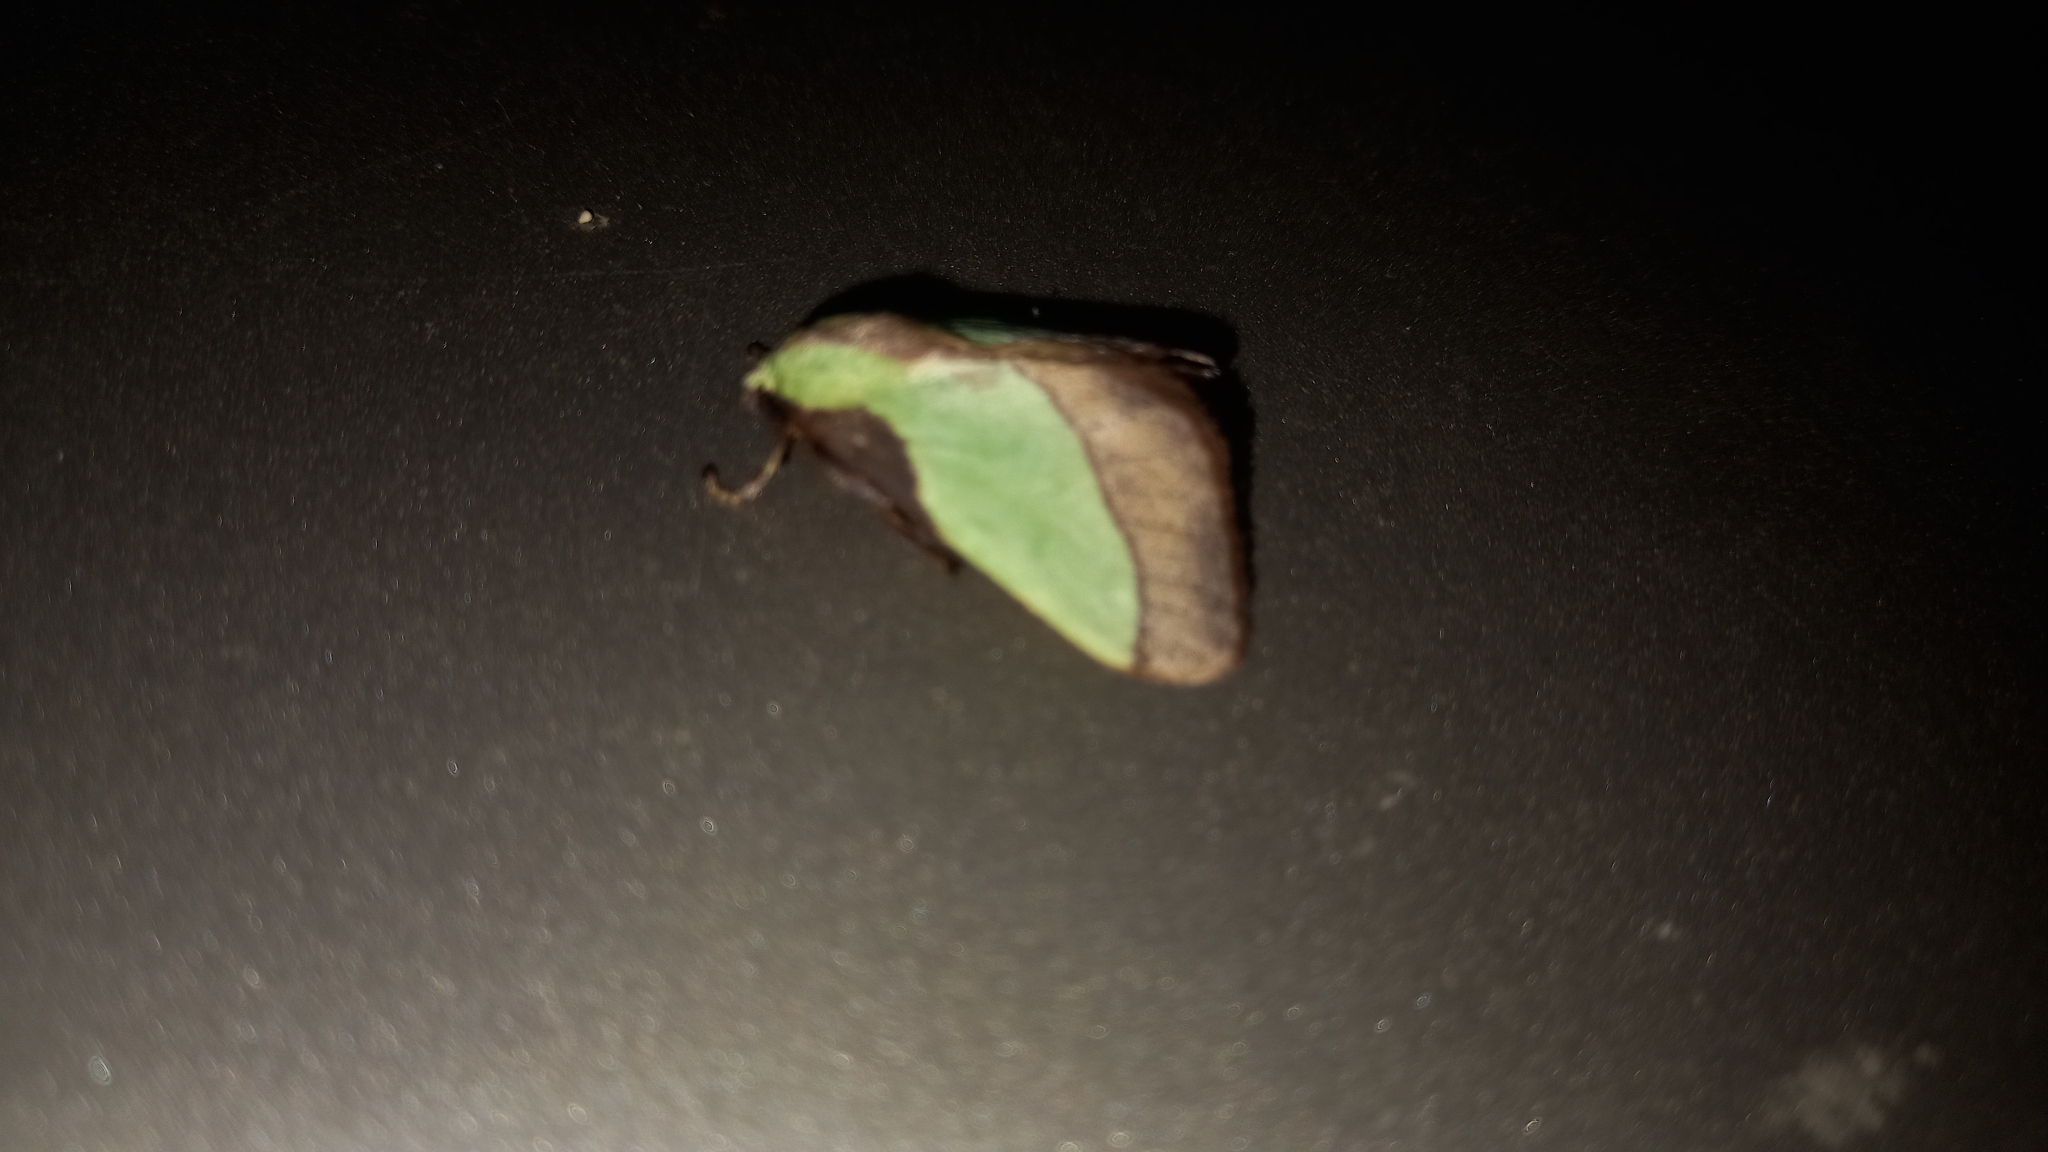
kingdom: Animalia
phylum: Arthropoda
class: Insecta
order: Lepidoptera
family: Limacodidae
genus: Parasa
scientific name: Parasa lepida
